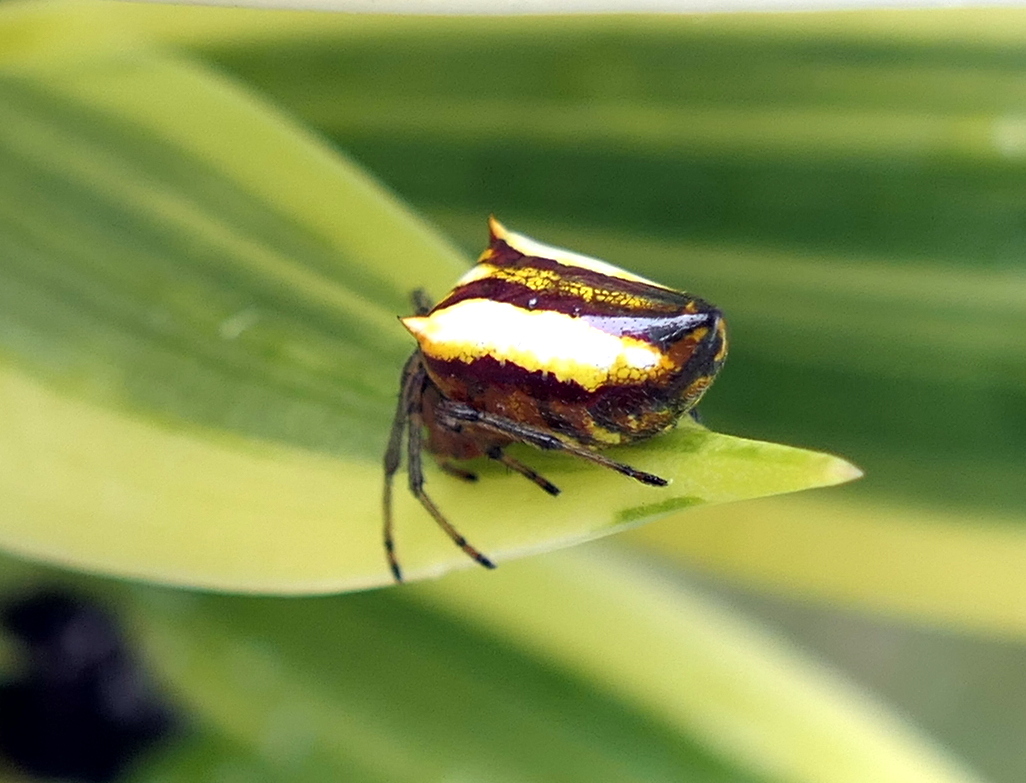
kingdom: Animalia
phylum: Arthropoda
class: Arachnida
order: Araneae
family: Araneidae
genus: Alpaida
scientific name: Alpaida bicornuta
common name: Orb weavers
